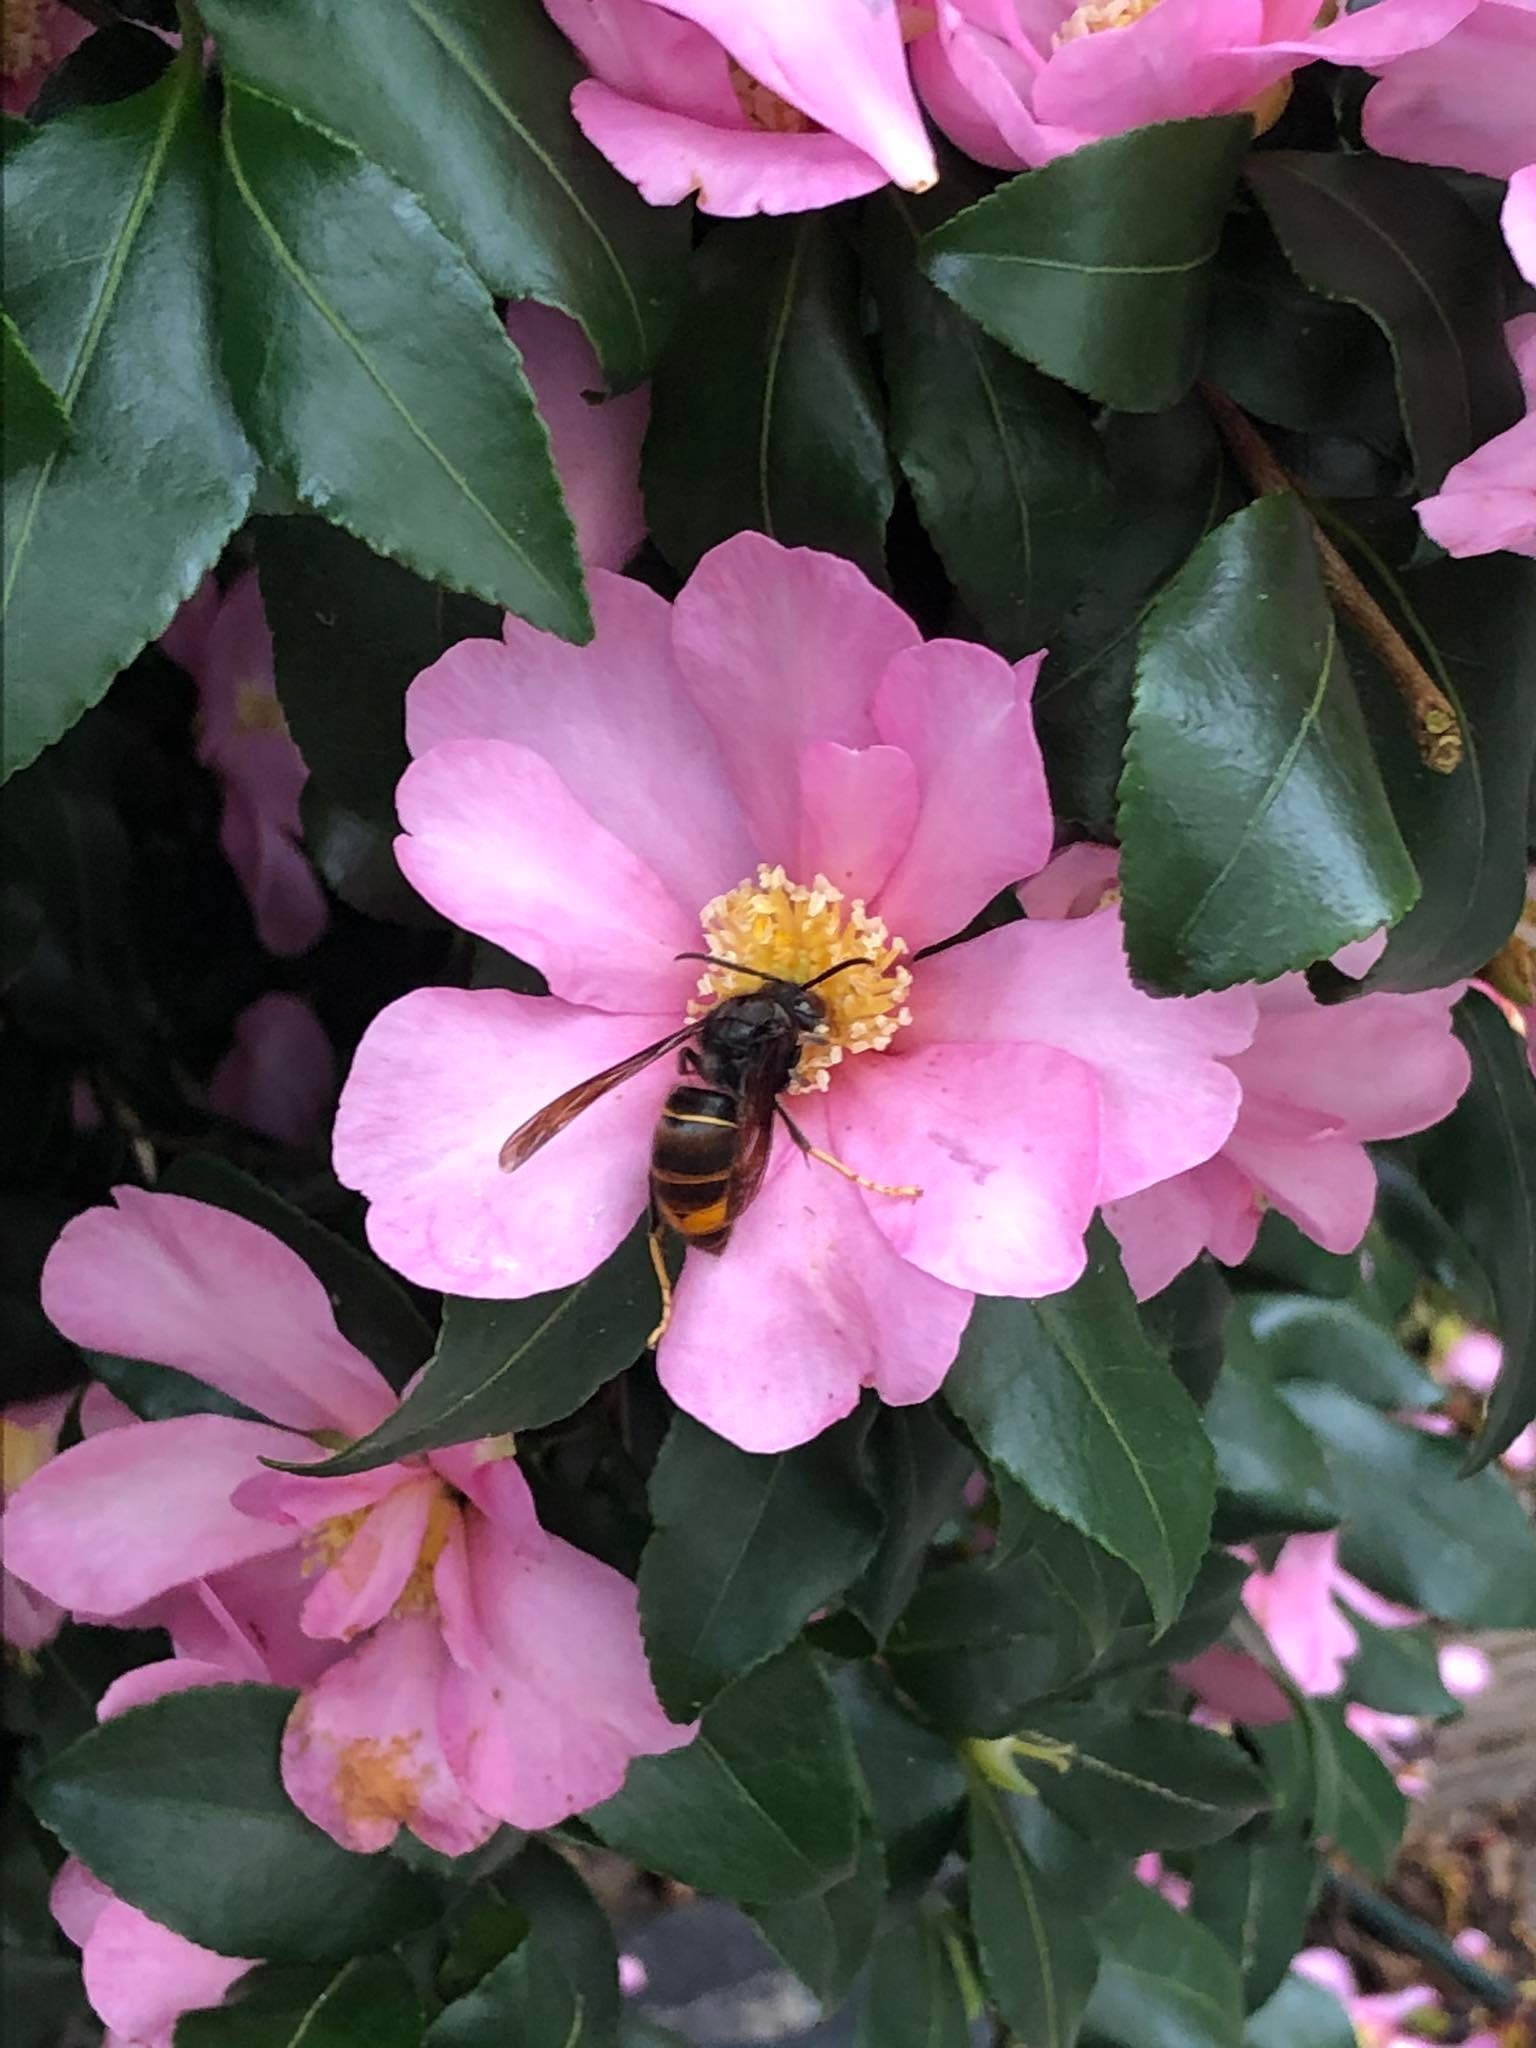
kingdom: Animalia
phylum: Arthropoda
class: Insecta
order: Hymenoptera
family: Vespidae
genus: Vespa
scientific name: Vespa velutina
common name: Asian hornet
